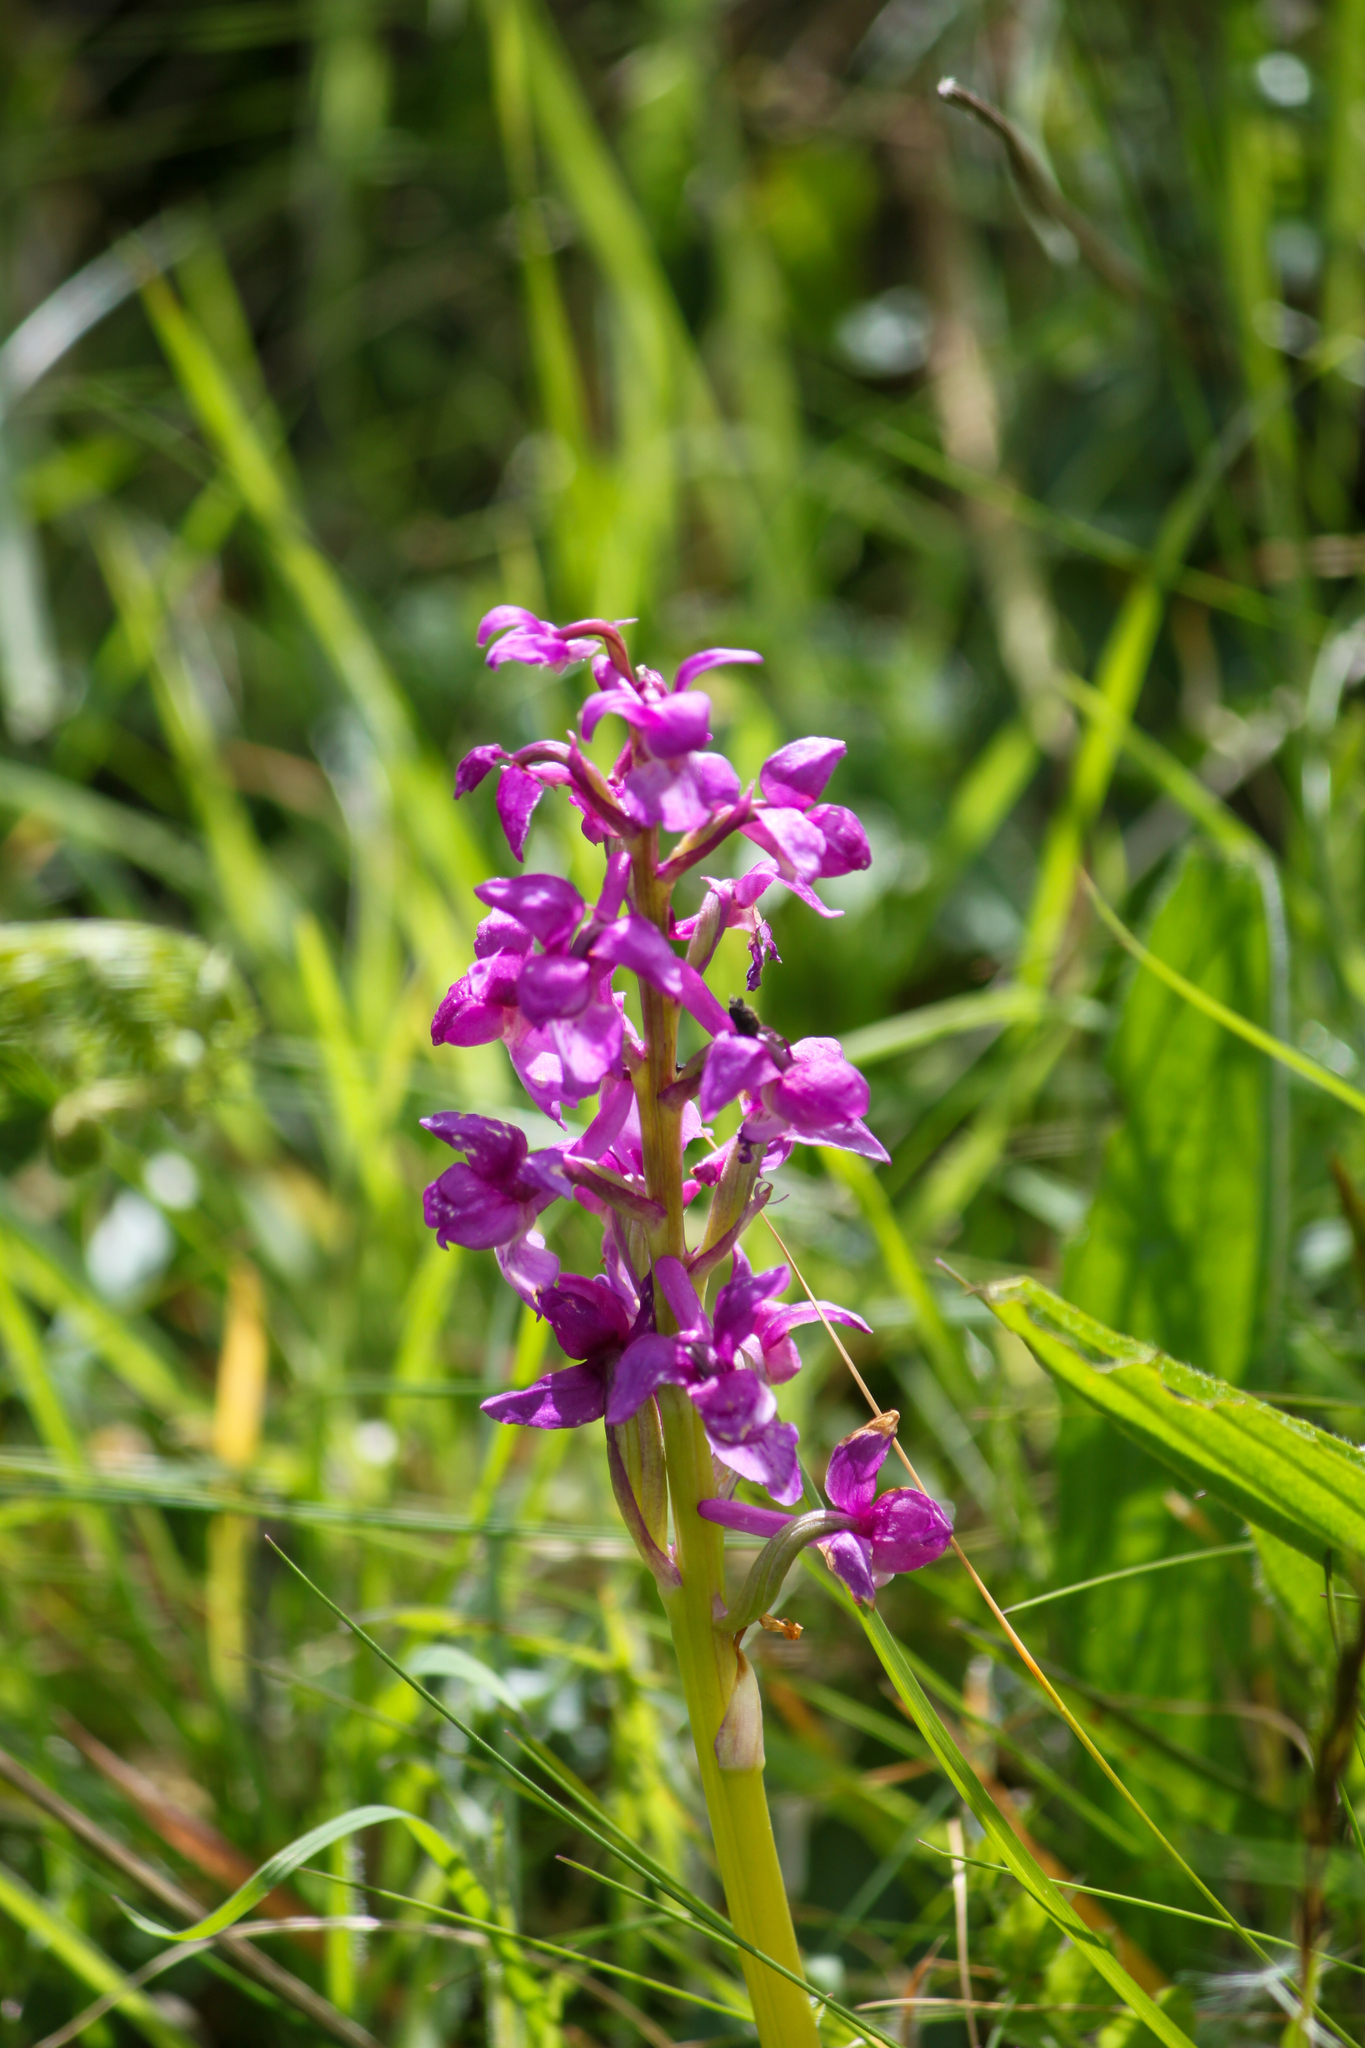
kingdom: Plantae
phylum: Tracheophyta
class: Liliopsida
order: Asparagales
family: Orchidaceae
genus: Orchis
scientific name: Orchis mascula
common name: Early-purple orchid
